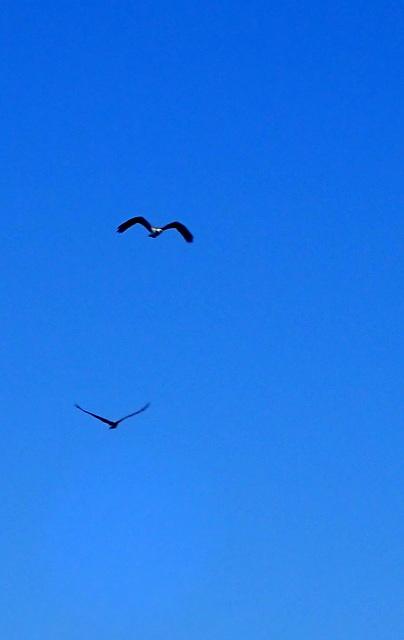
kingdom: Animalia
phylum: Chordata
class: Aves
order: Accipitriformes
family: Pandionidae
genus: Pandion
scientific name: Pandion haliaetus
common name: Osprey
